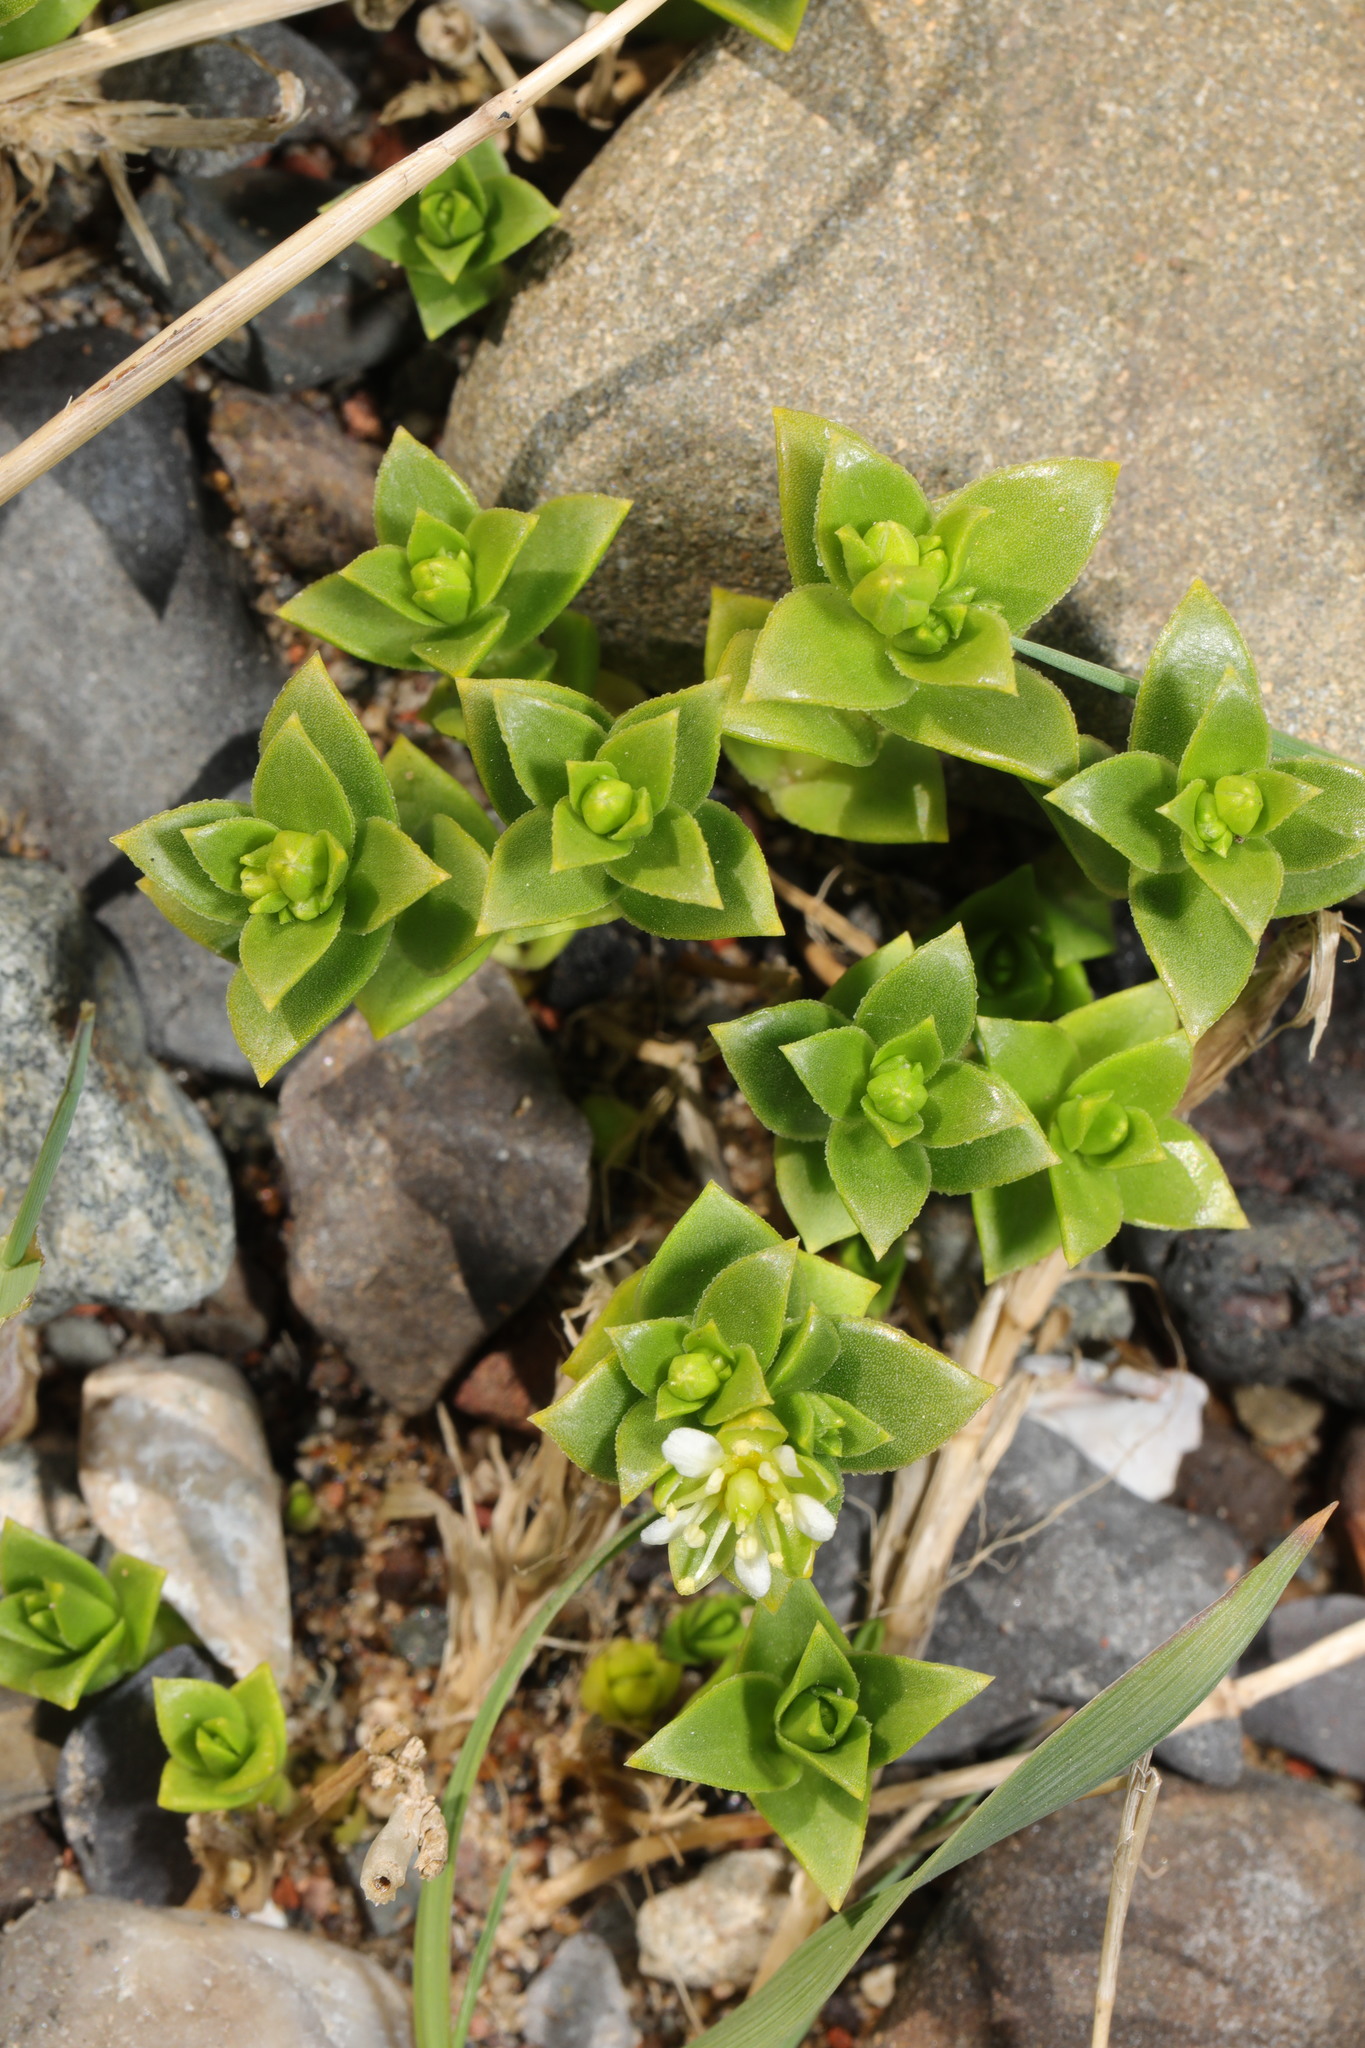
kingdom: Plantae
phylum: Tracheophyta
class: Magnoliopsida
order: Caryophyllales
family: Caryophyllaceae
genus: Honckenya
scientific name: Honckenya peploides
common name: Sea sandwort
